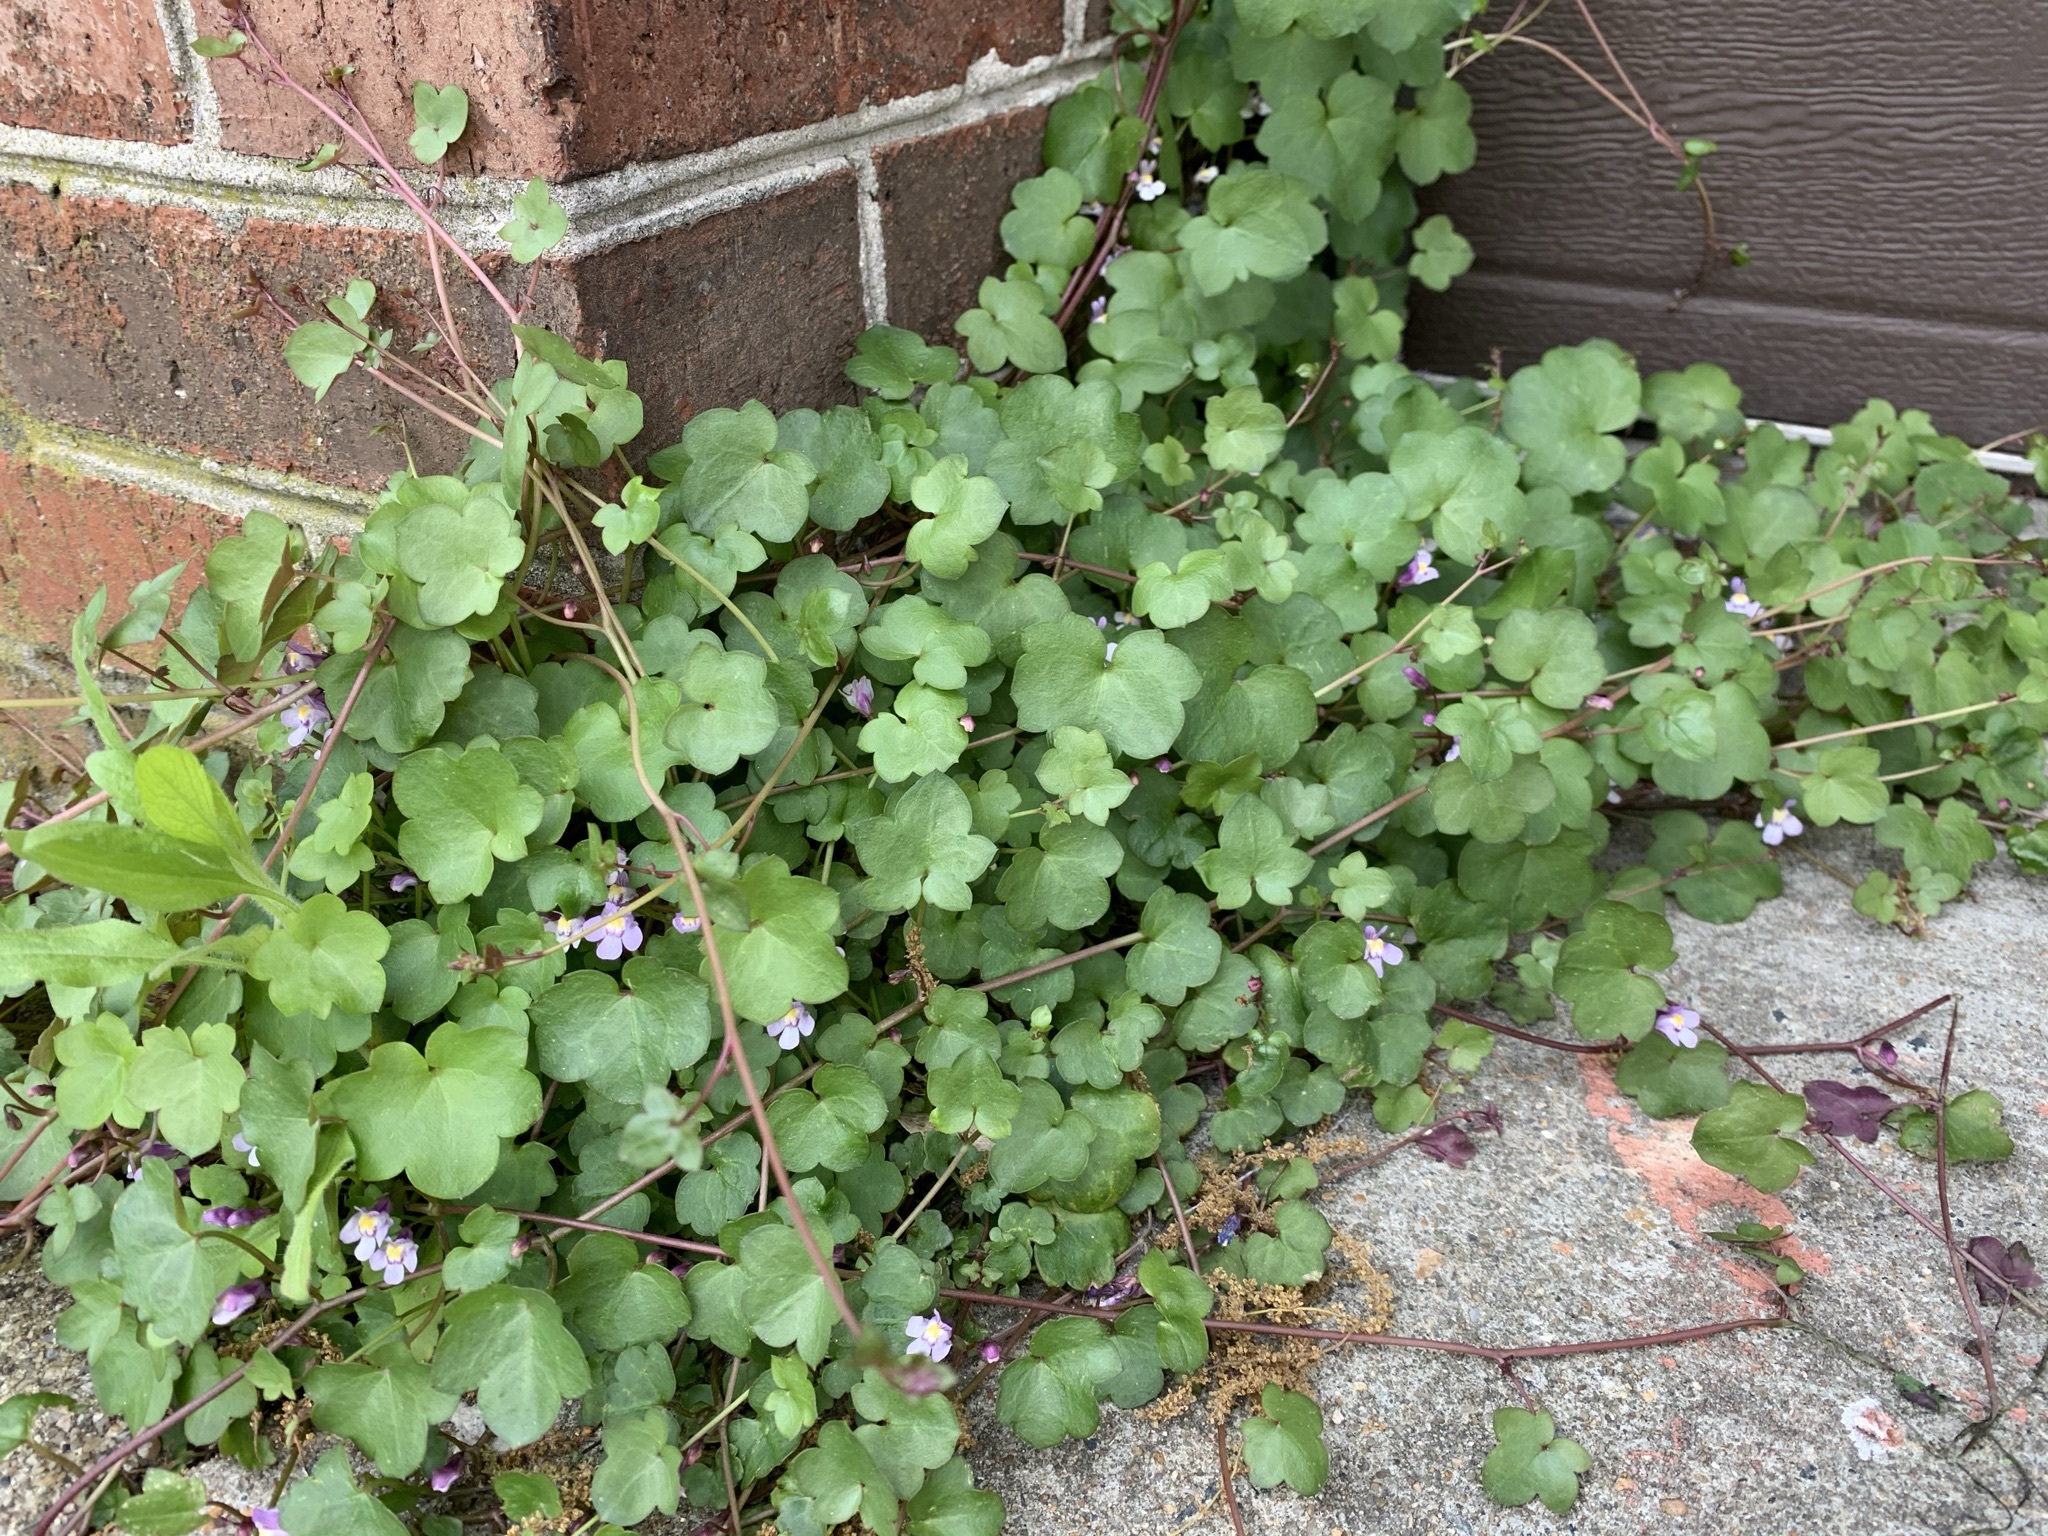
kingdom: Plantae
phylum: Tracheophyta
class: Magnoliopsida
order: Lamiales
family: Plantaginaceae
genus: Cymbalaria
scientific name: Cymbalaria muralis
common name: Ivy-leaved toadflax
